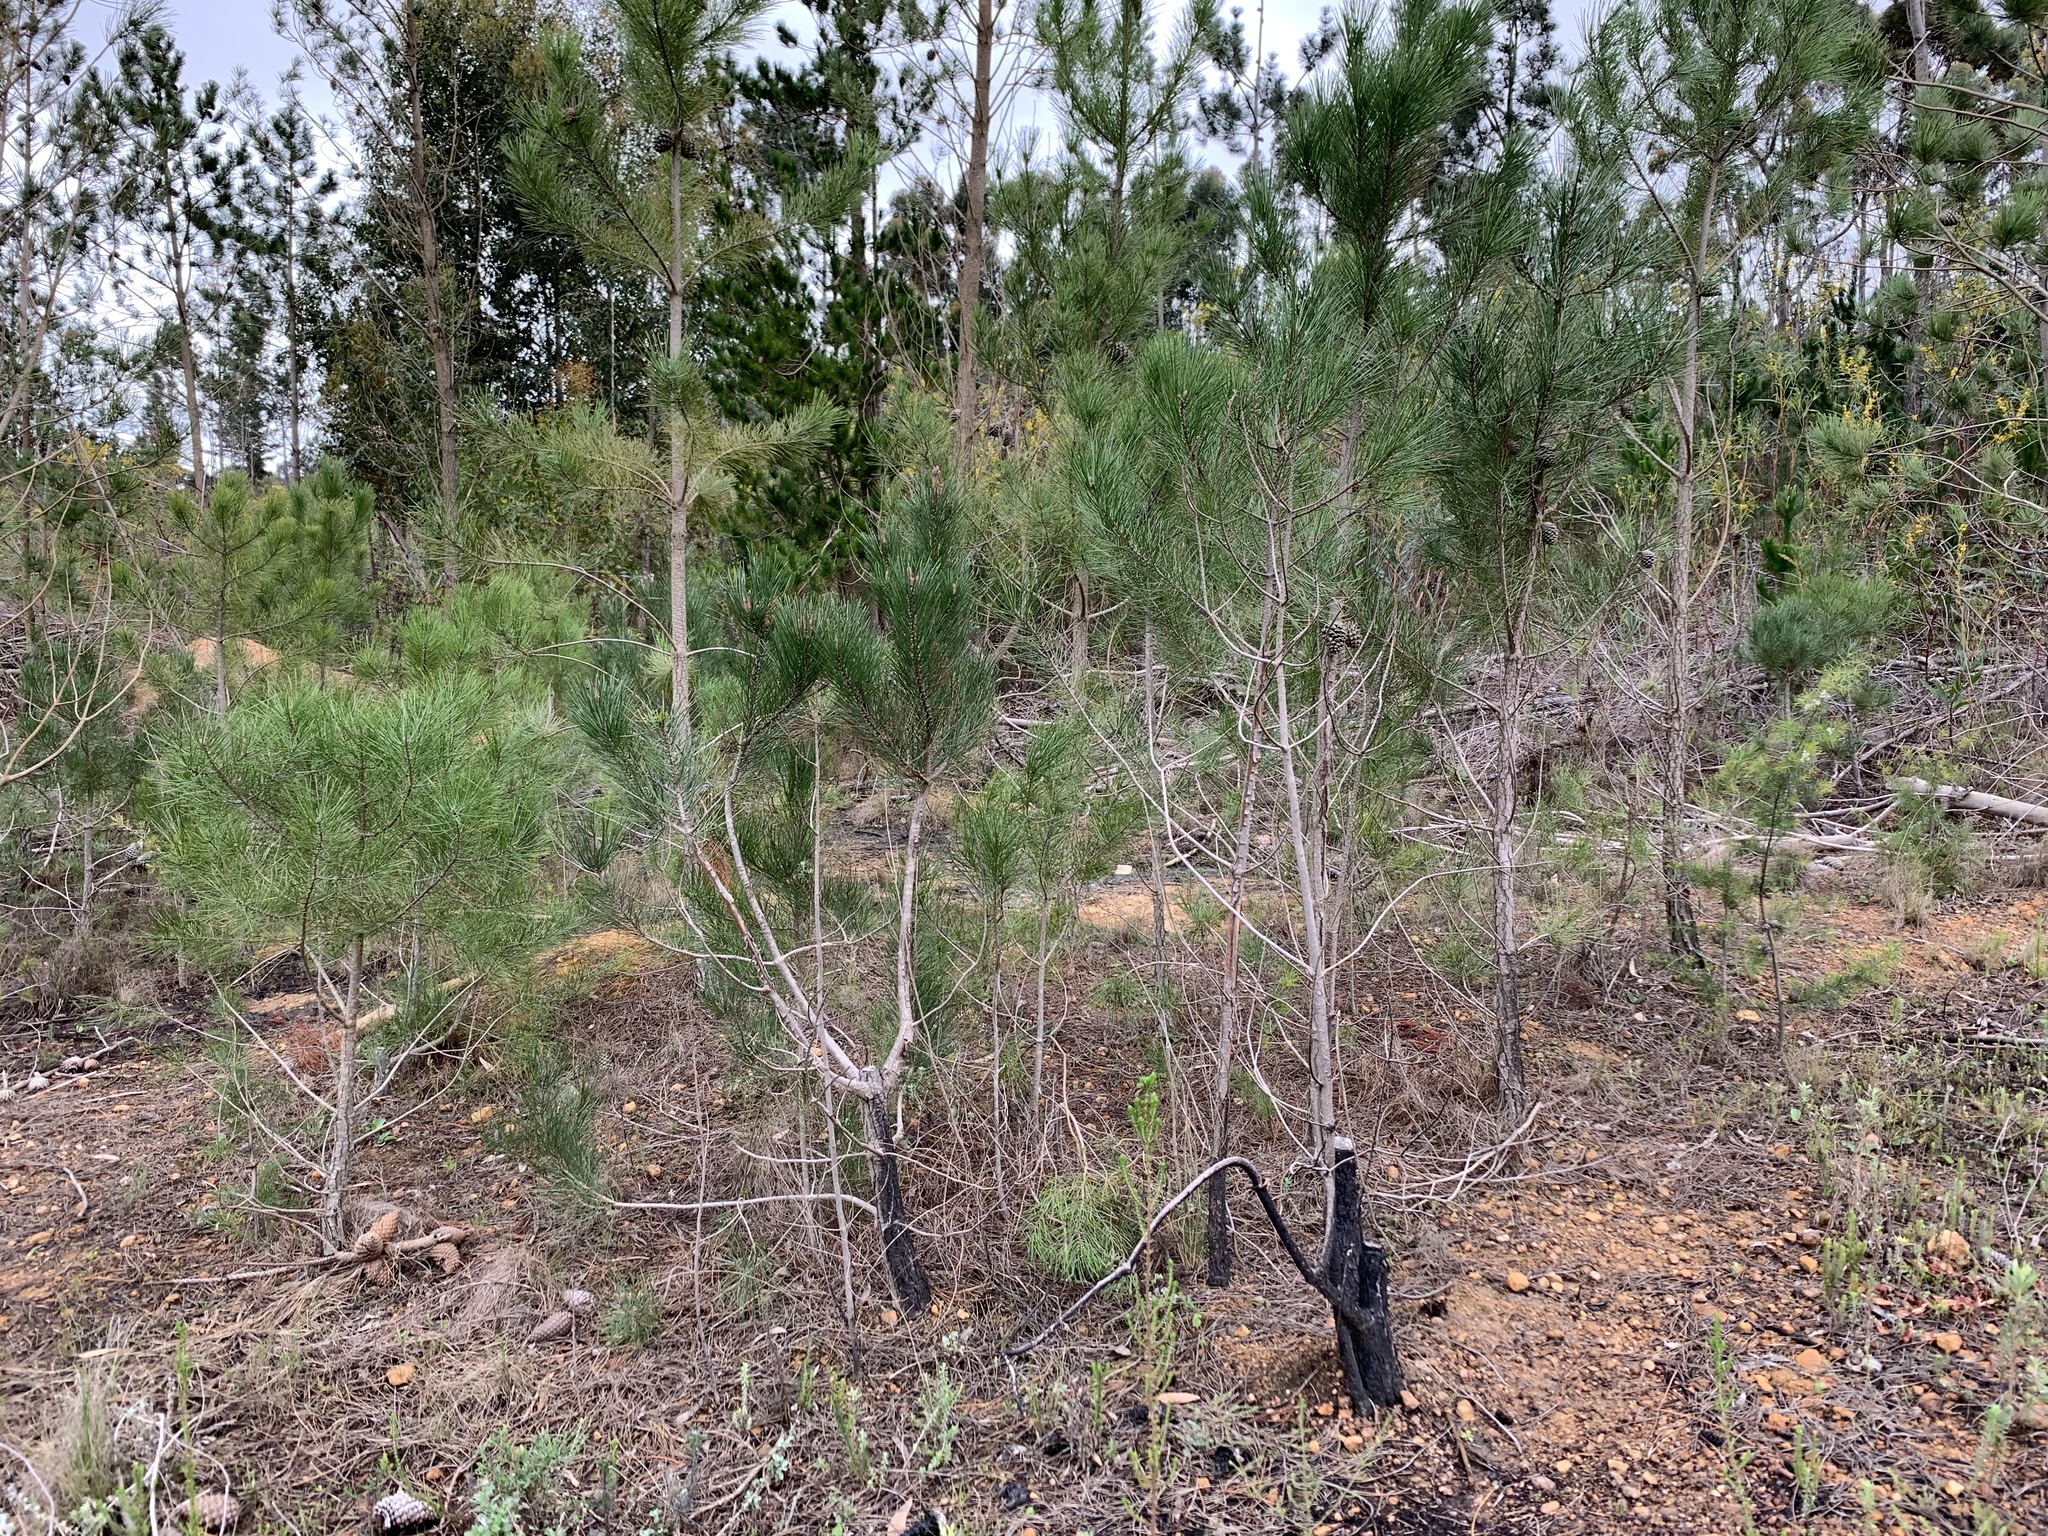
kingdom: Plantae
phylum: Tracheophyta
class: Pinopsida
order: Pinales
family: Pinaceae
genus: Pinus
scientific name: Pinus pinaster
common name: Maritime pine
